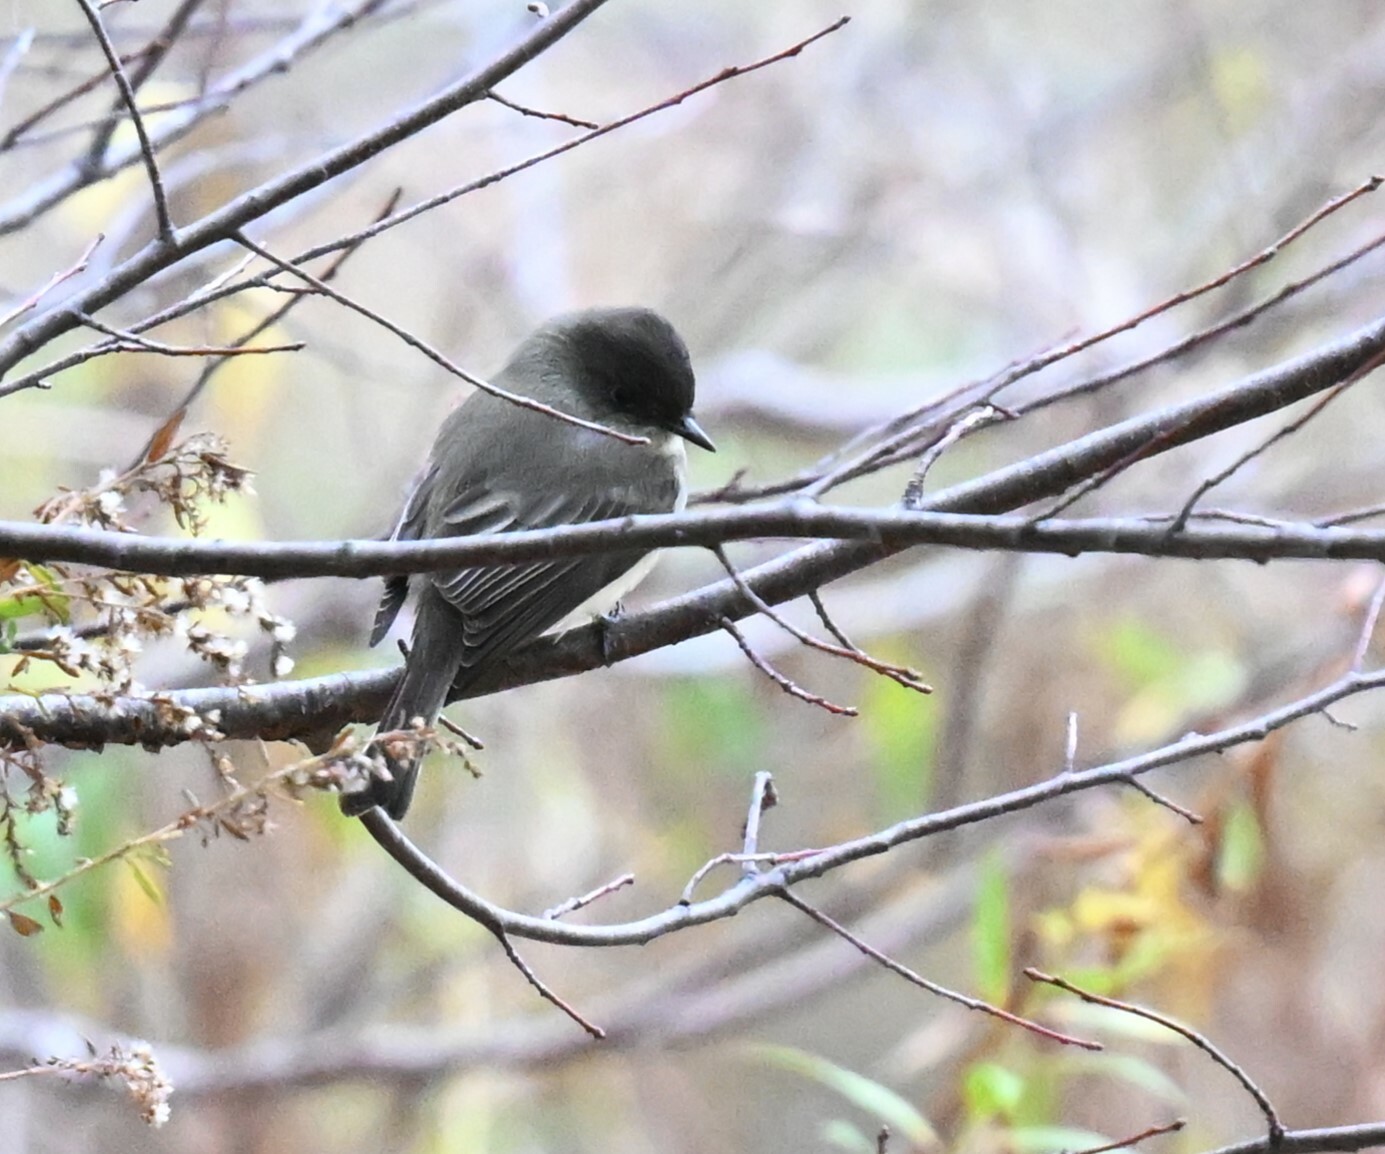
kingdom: Animalia
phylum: Chordata
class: Aves
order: Passeriformes
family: Tyrannidae
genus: Sayornis
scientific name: Sayornis phoebe
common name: Eastern phoebe
